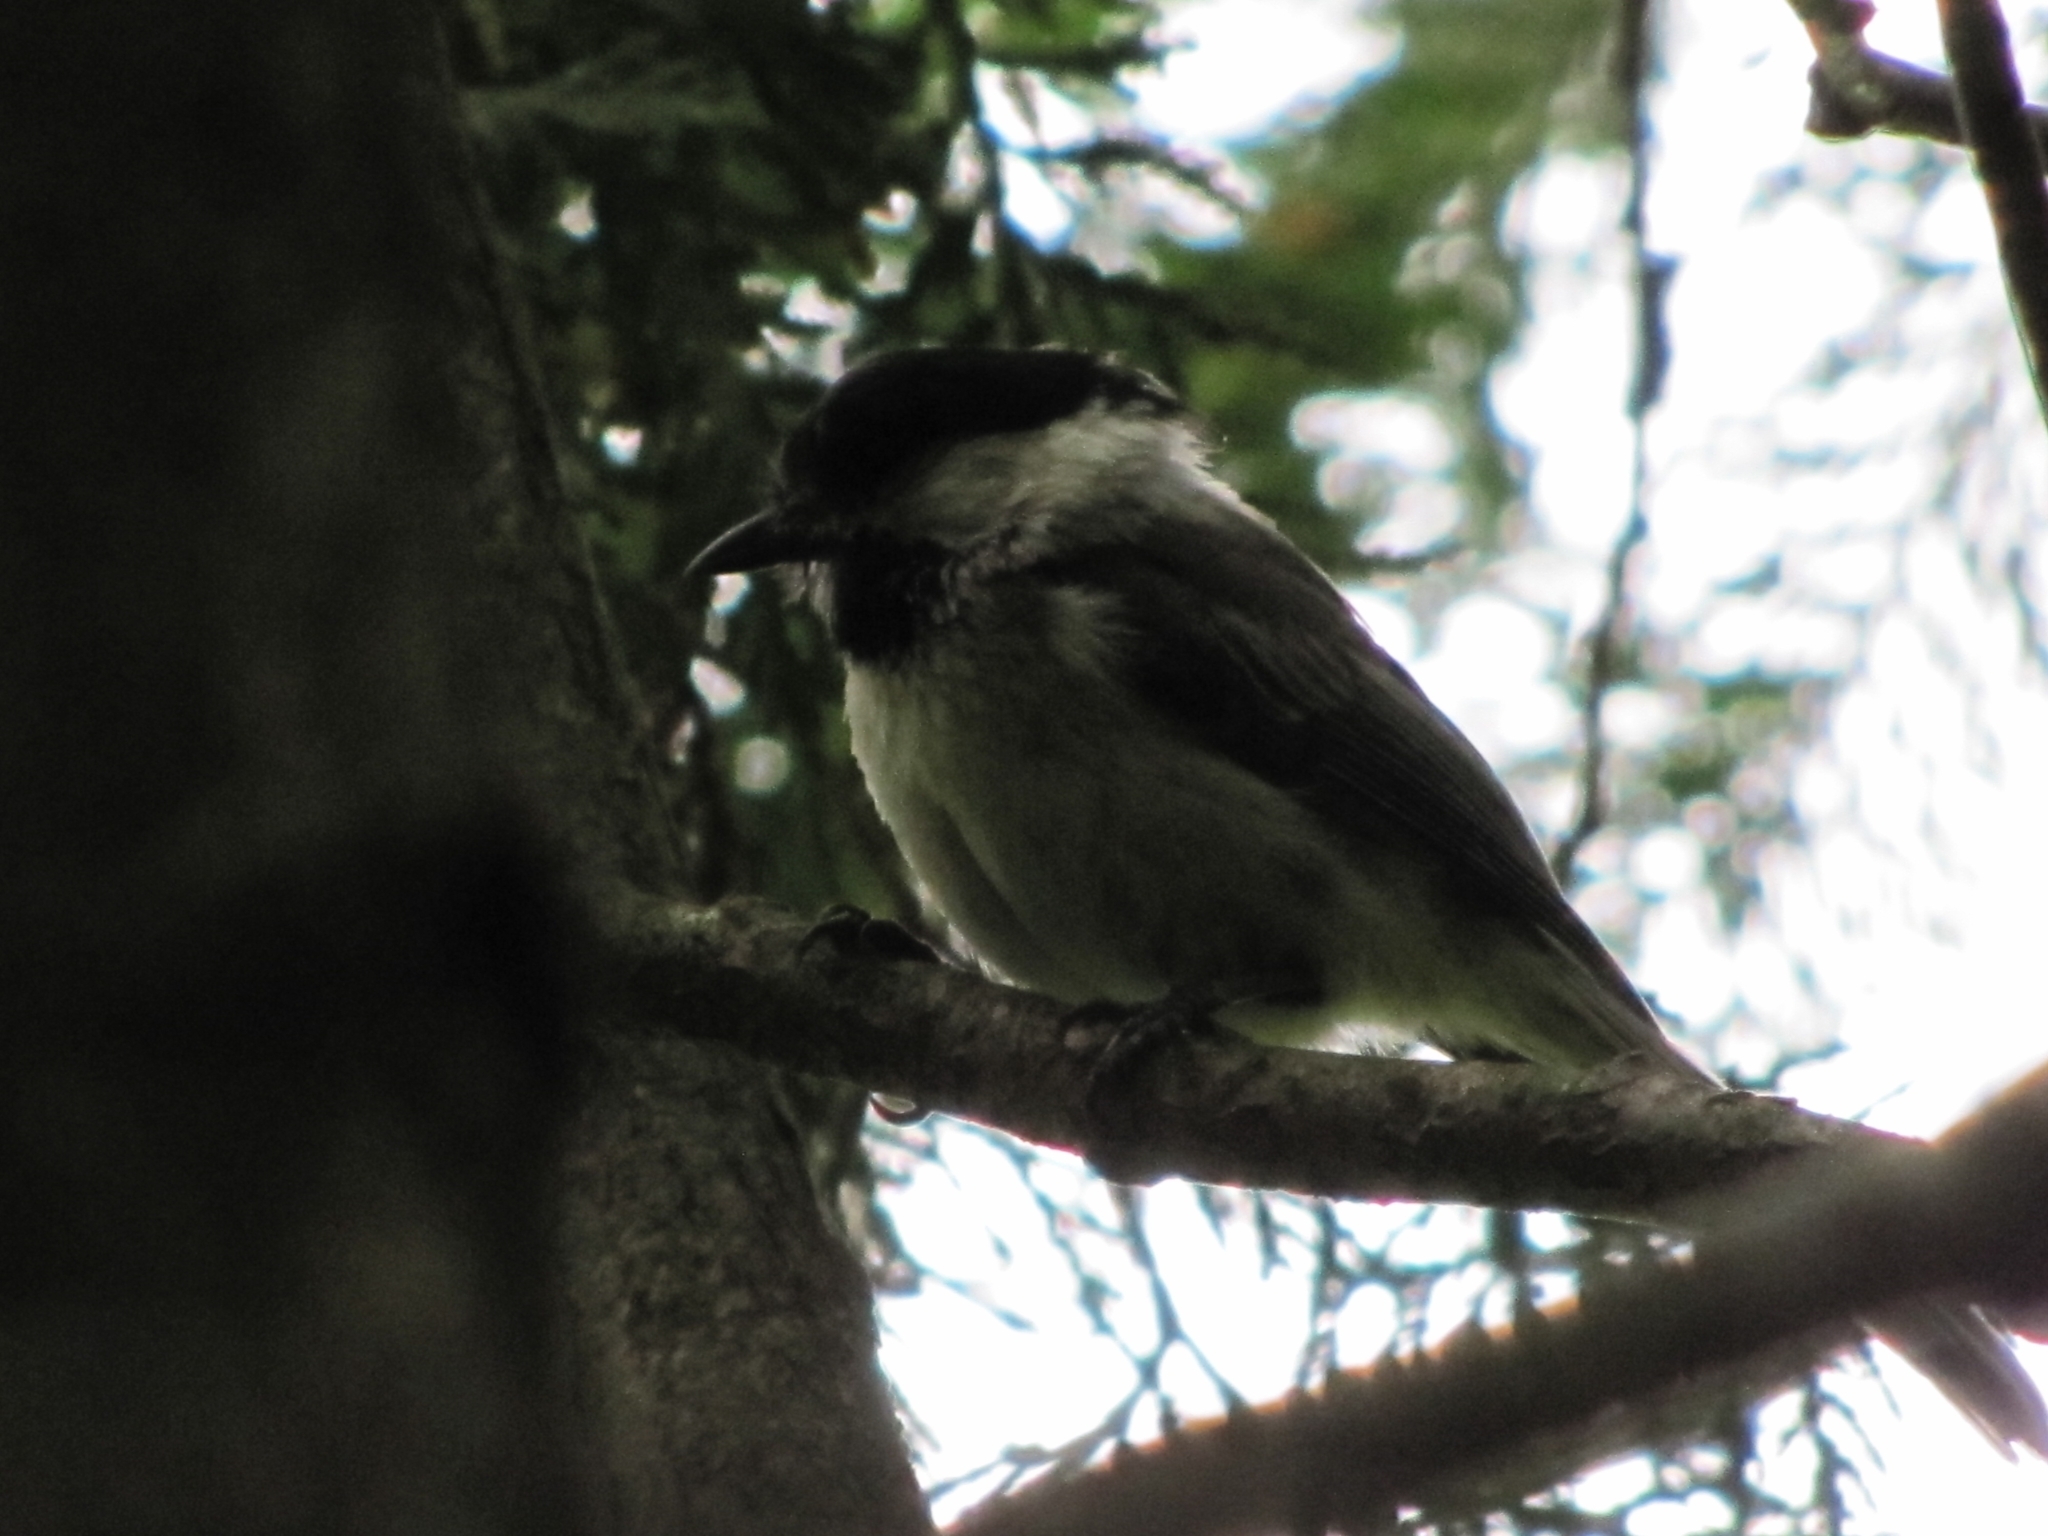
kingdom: Animalia
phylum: Chordata
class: Aves
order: Passeriformes
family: Paridae
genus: Poecile
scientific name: Poecile atricapillus
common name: Black-capped chickadee
